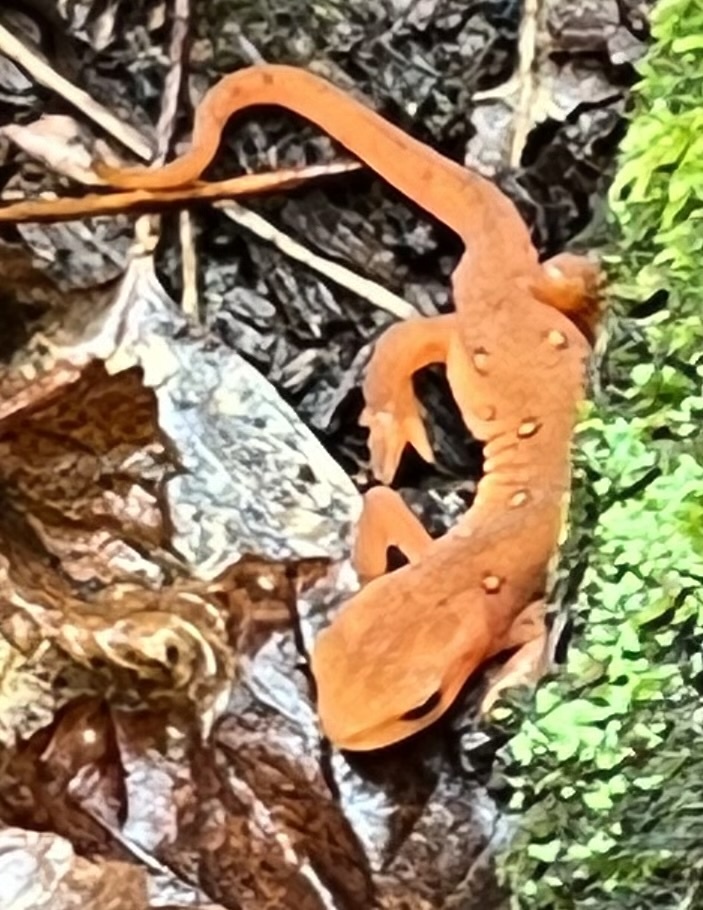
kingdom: Animalia
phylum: Chordata
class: Amphibia
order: Caudata
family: Salamandridae
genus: Notophthalmus
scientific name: Notophthalmus viridescens
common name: Eastern newt
